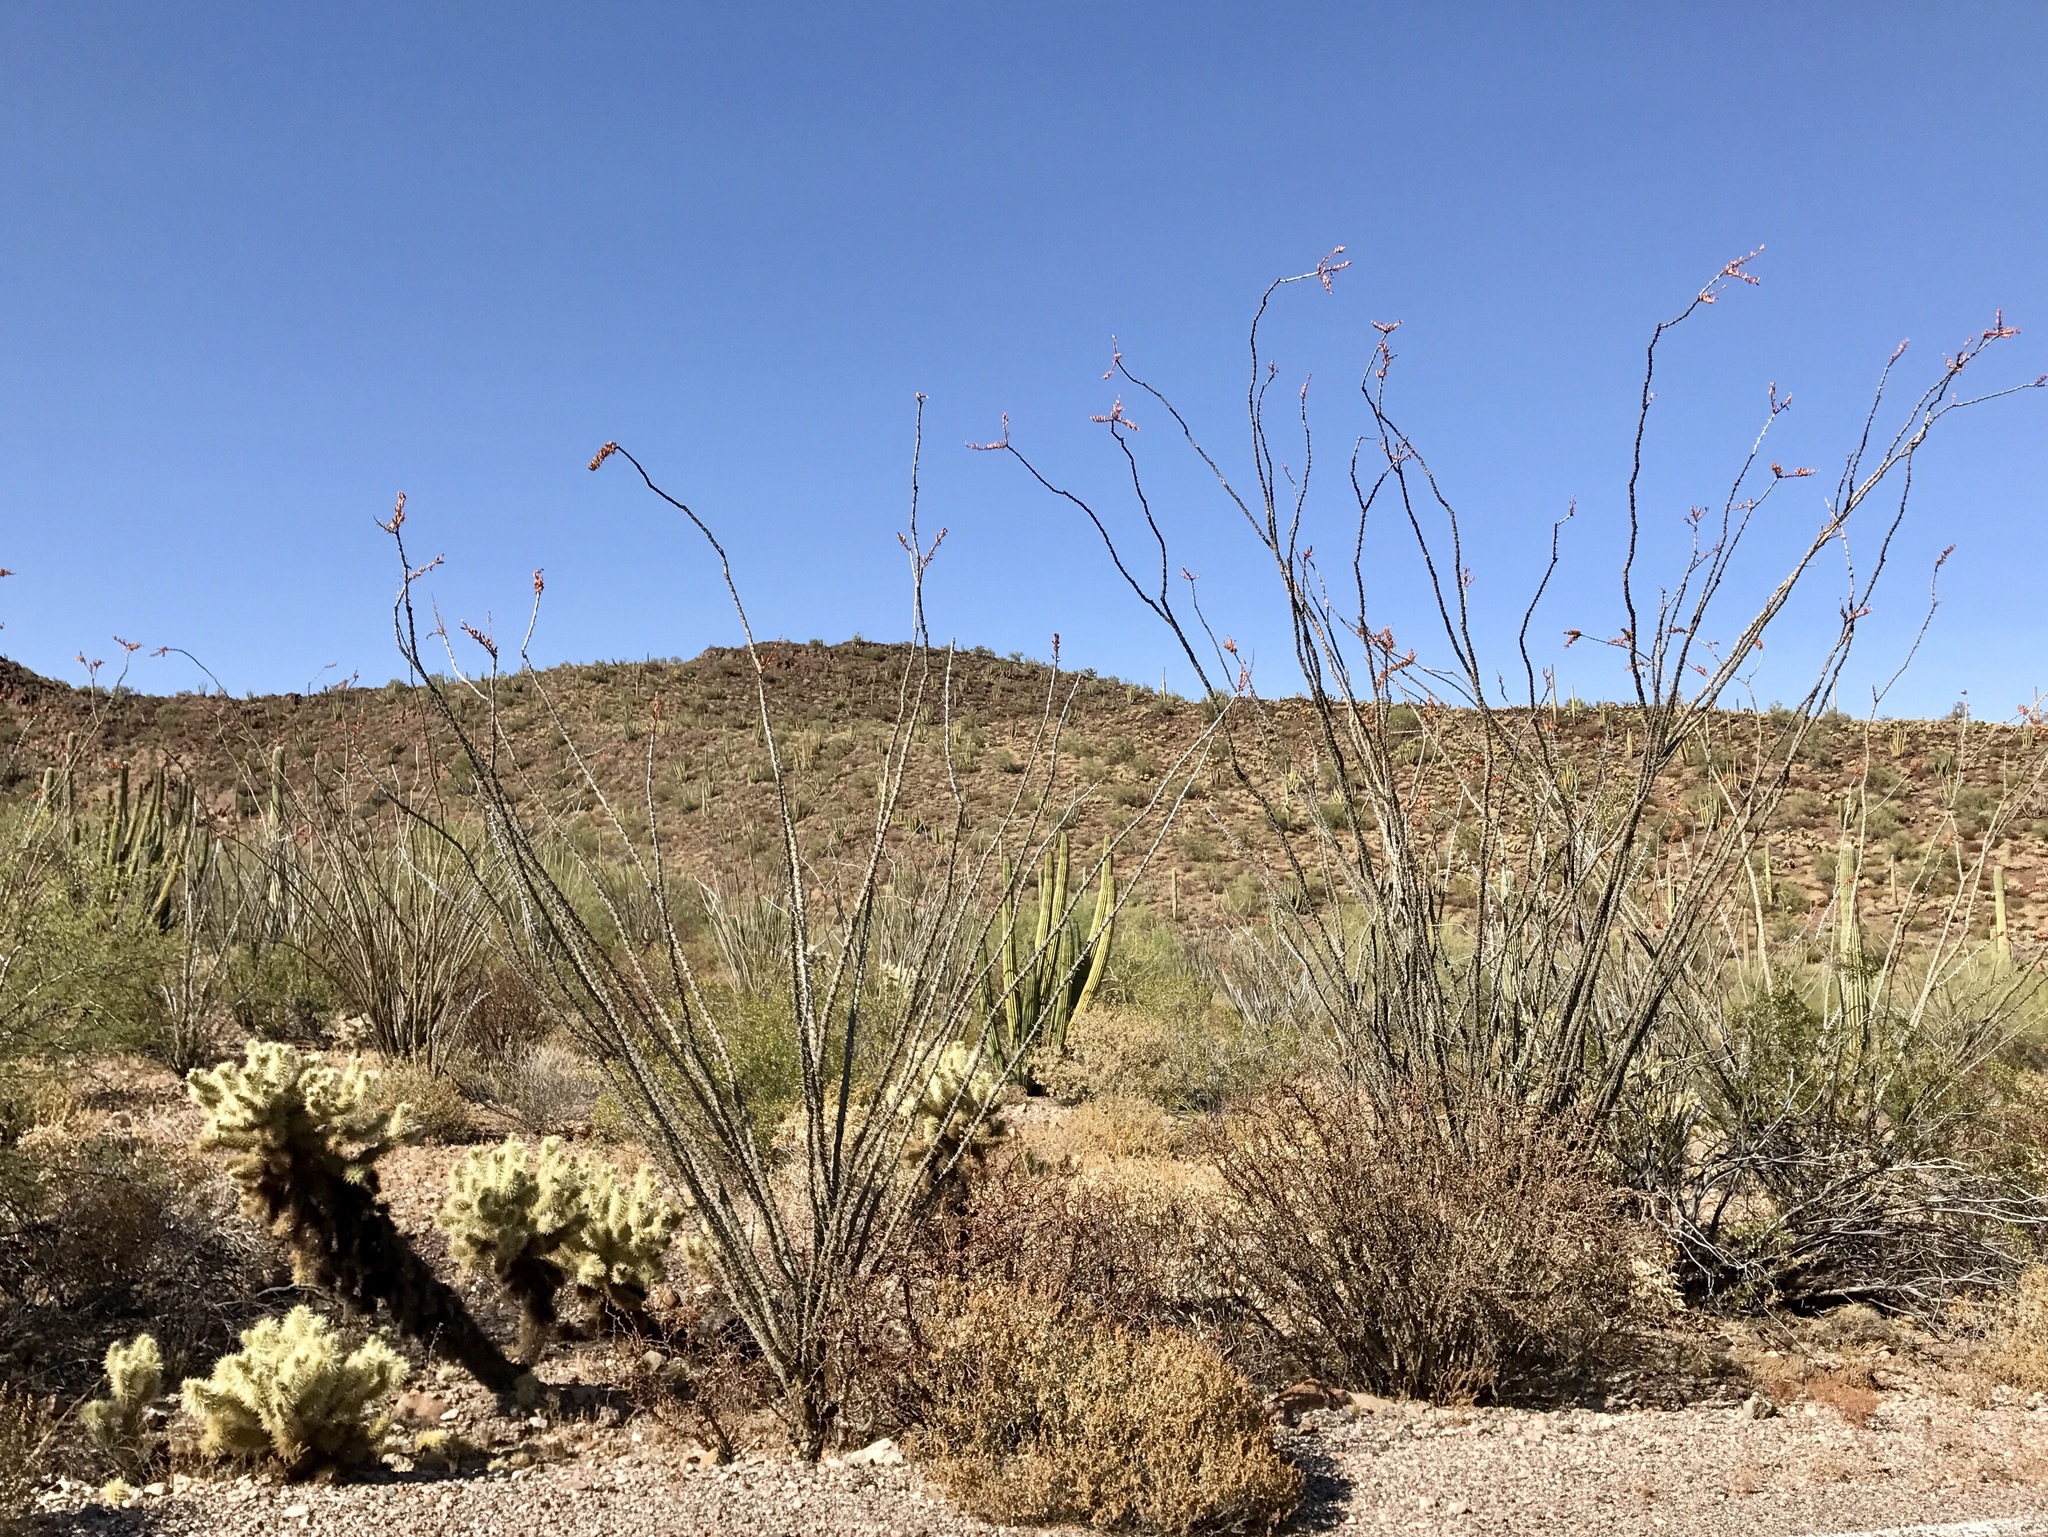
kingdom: Plantae
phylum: Tracheophyta
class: Magnoliopsida
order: Ericales
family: Fouquieriaceae
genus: Fouquieria
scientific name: Fouquieria splendens
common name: Vine-cactus
